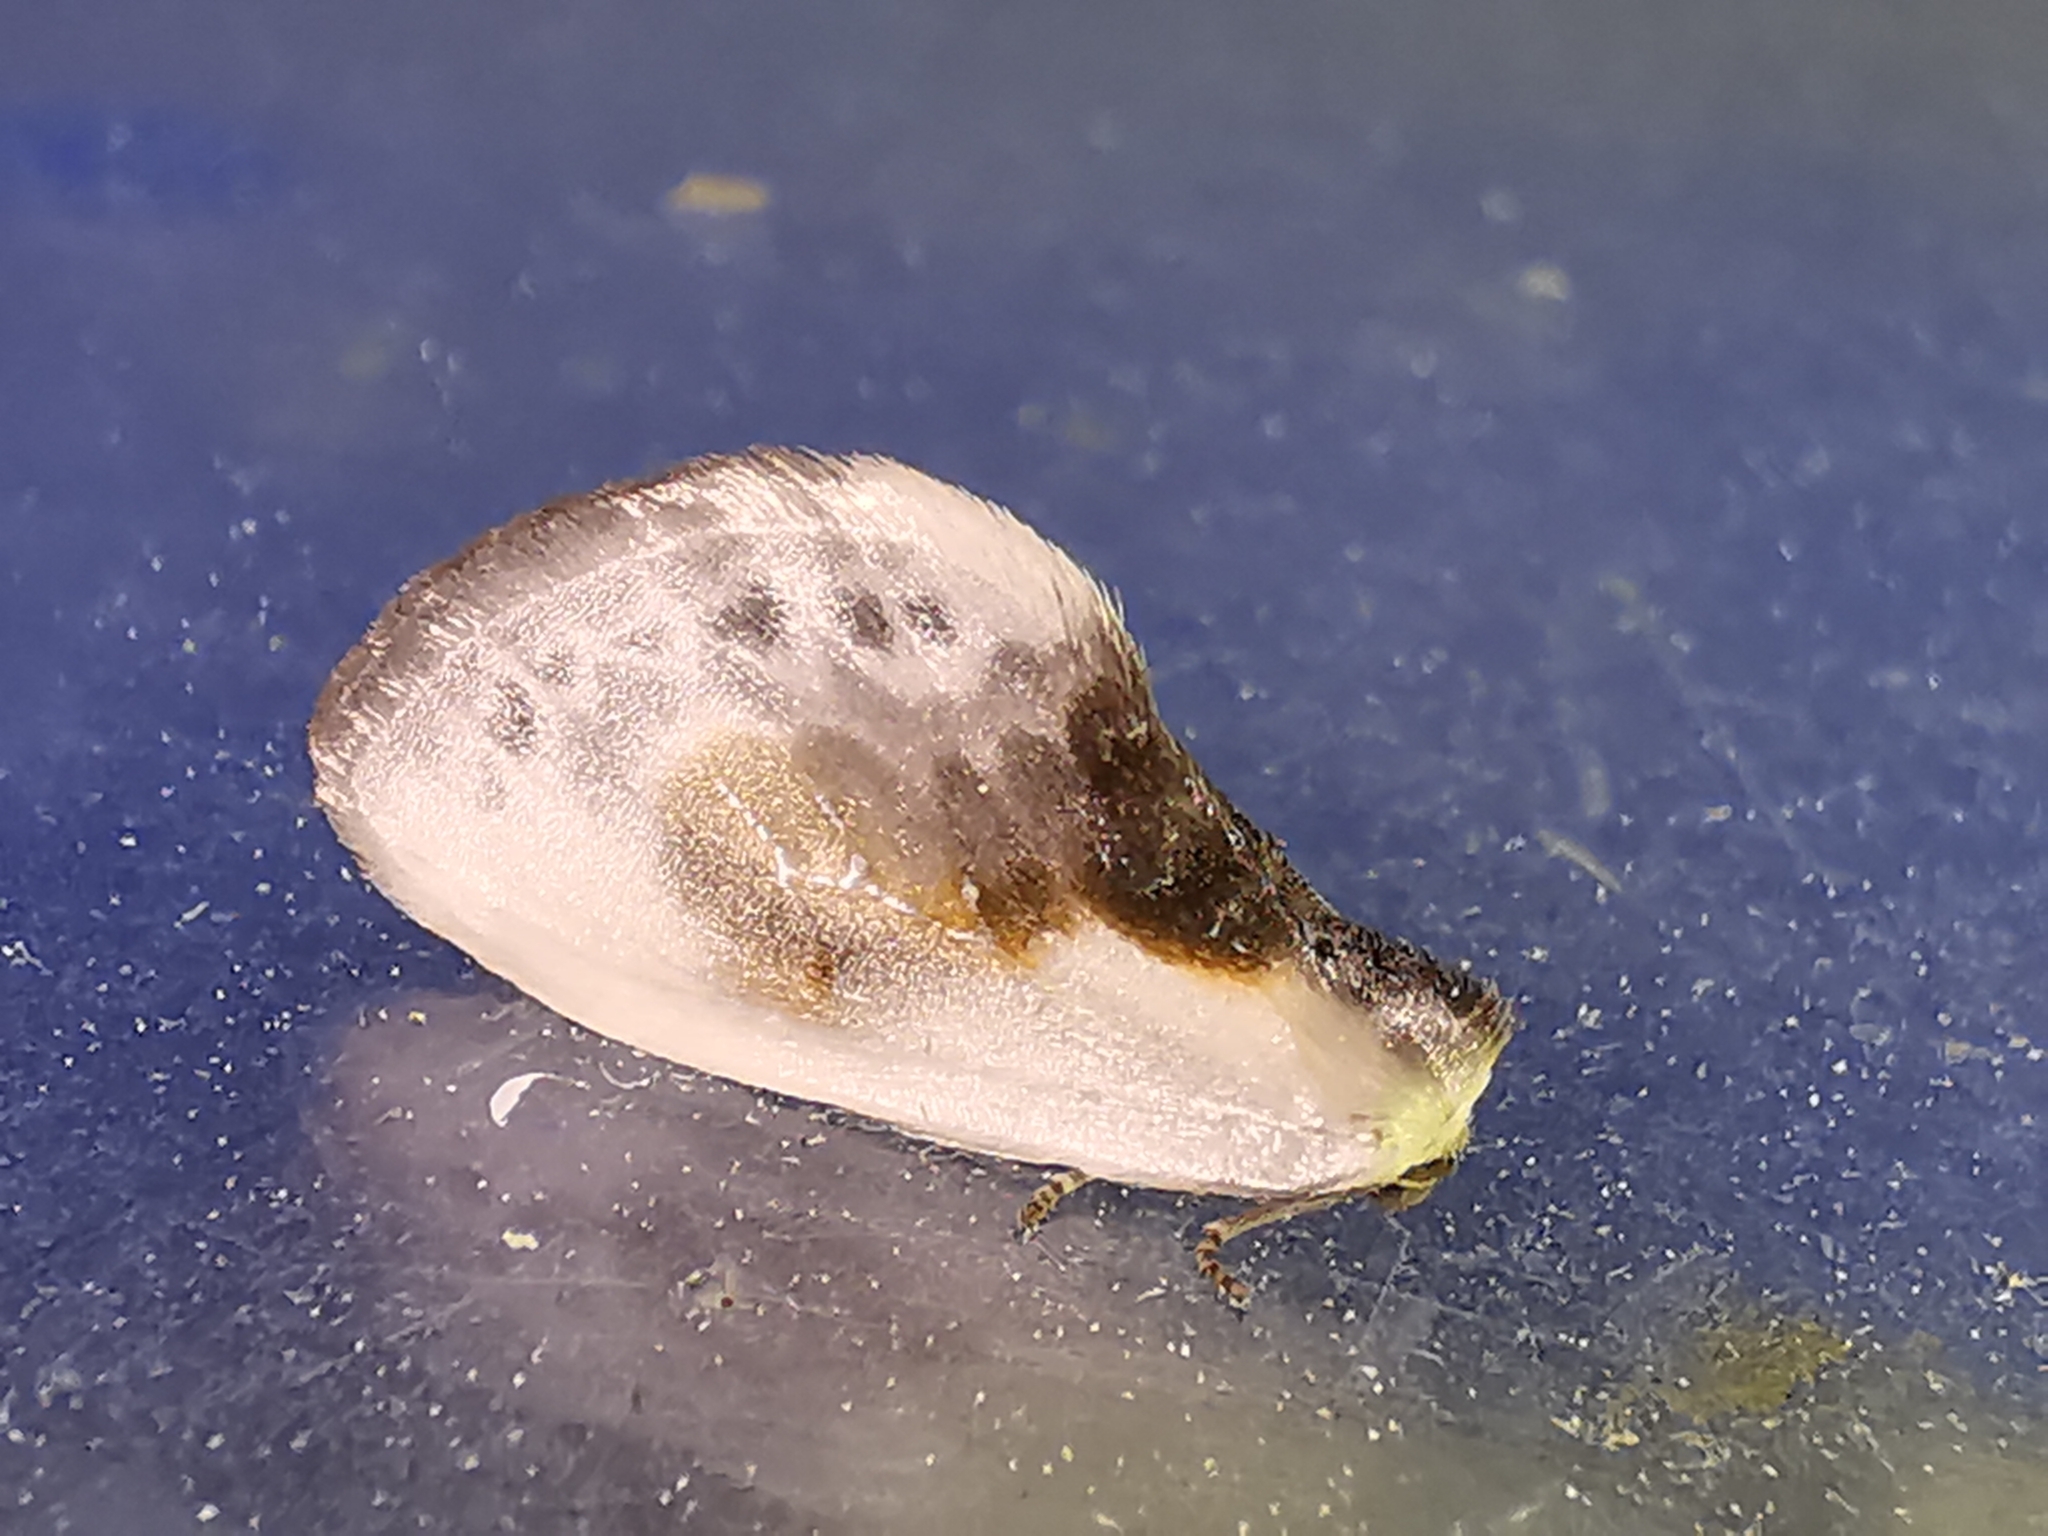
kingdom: Animalia
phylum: Arthropoda
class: Insecta
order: Lepidoptera
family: Drepanidae
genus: Cilix
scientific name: Cilix glaucata
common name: Chinese character
